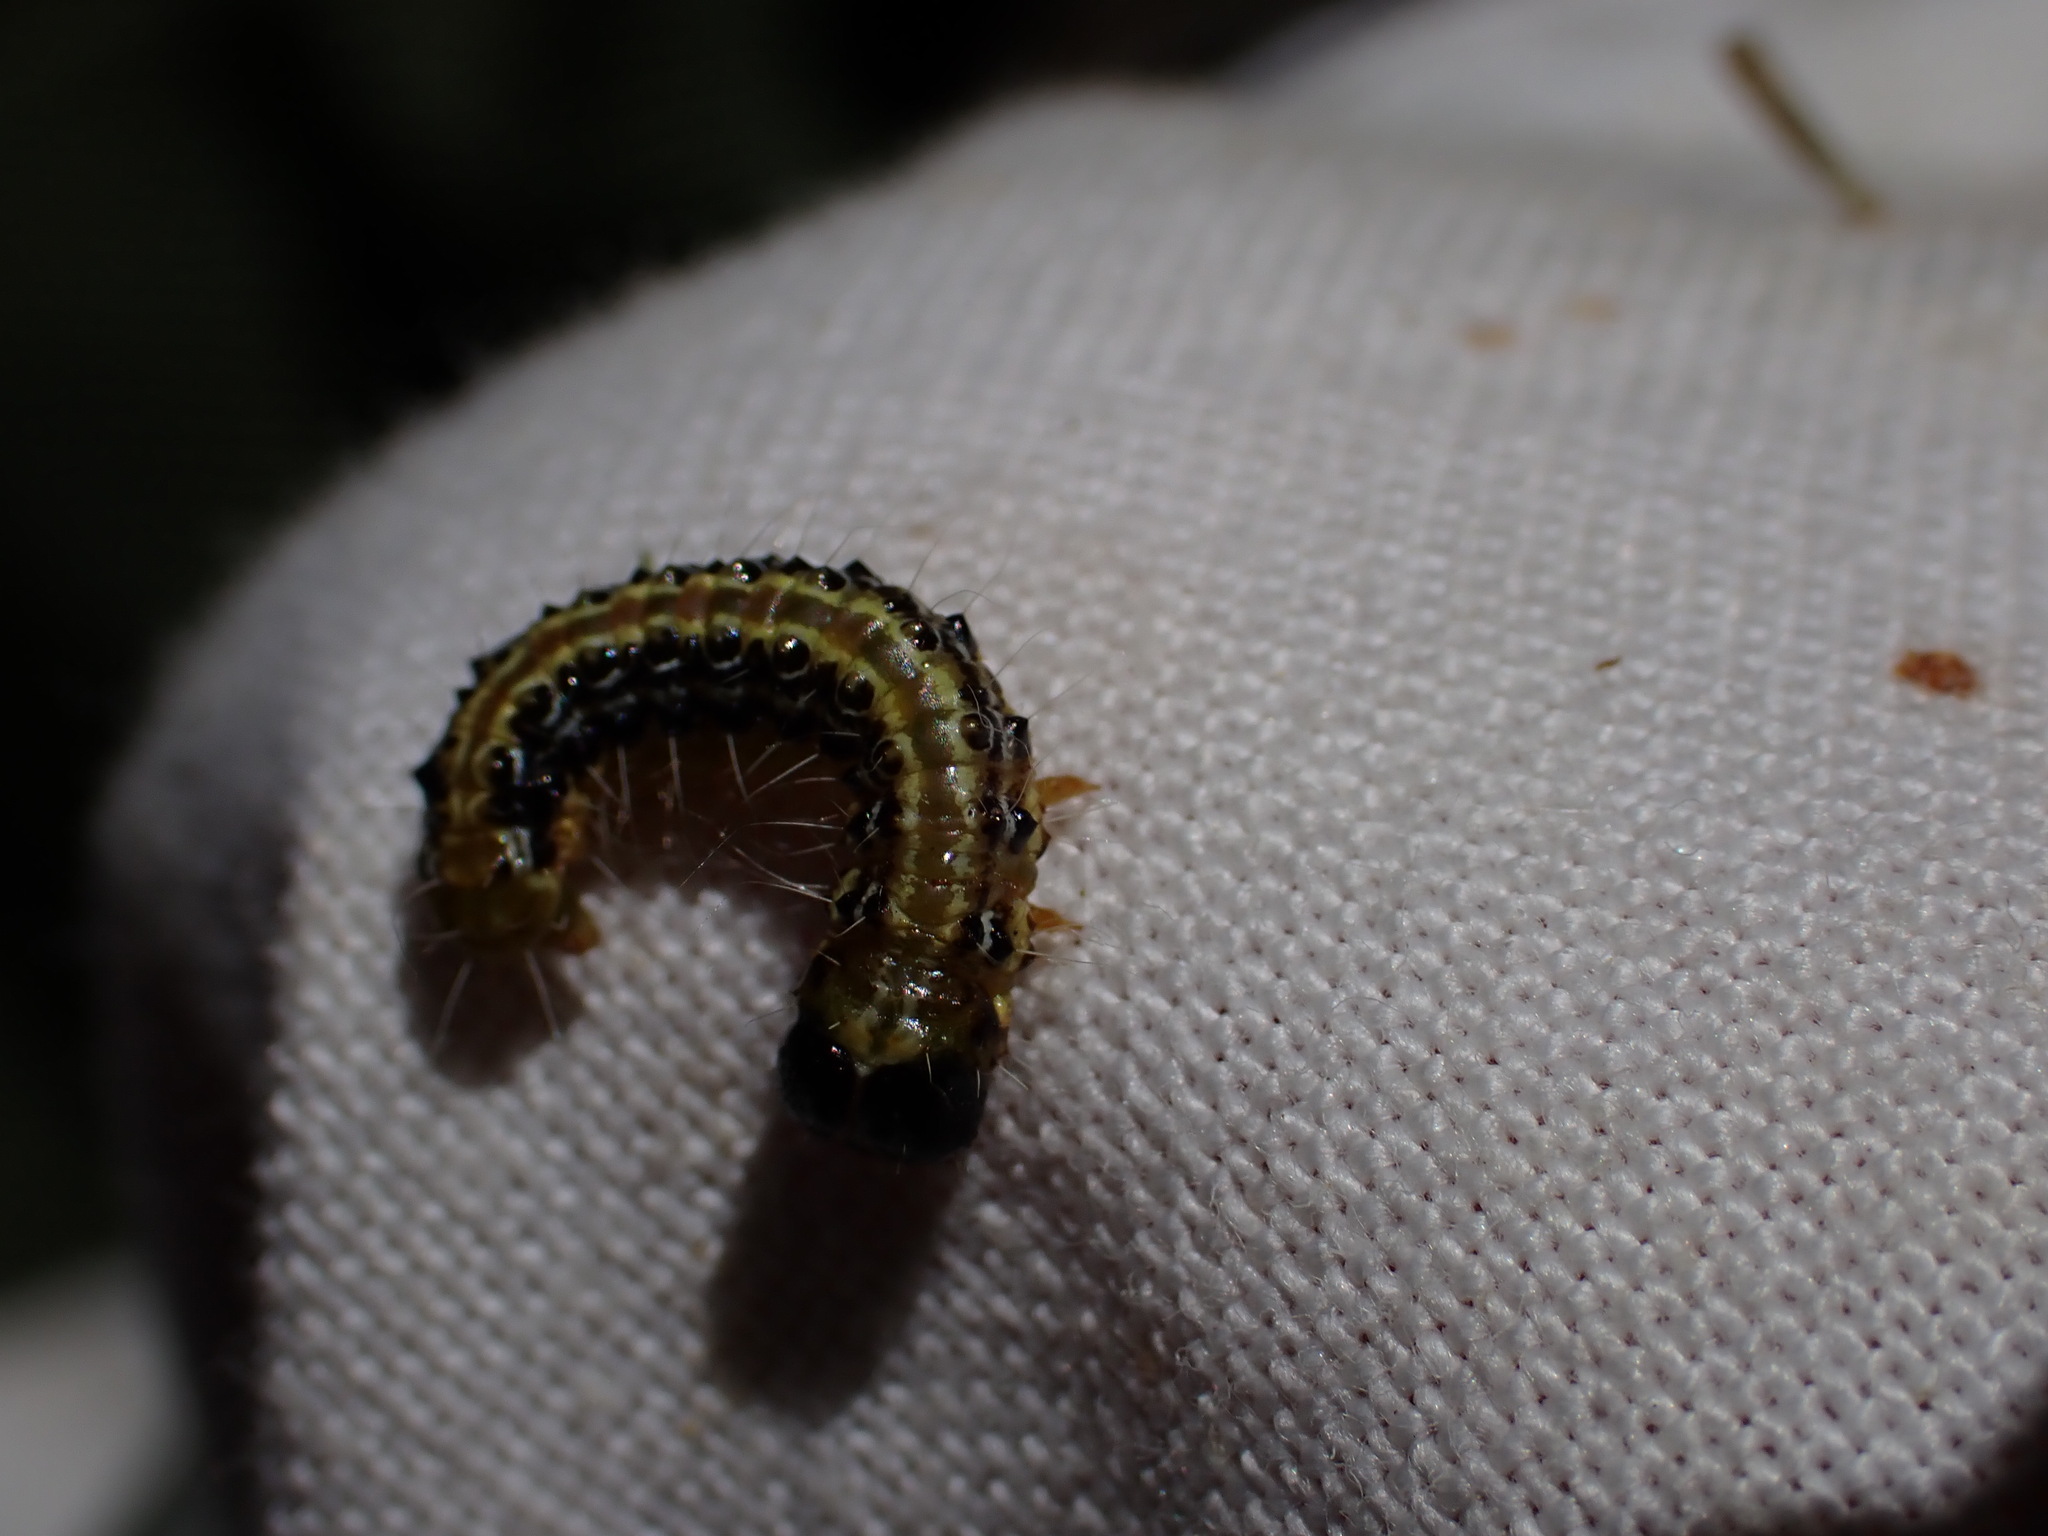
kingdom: Animalia
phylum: Arthropoda
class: Insecta
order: Lepidoptera
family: Crambidae
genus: Cydalima
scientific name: Cydalima perspectalis
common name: Box tree moth
